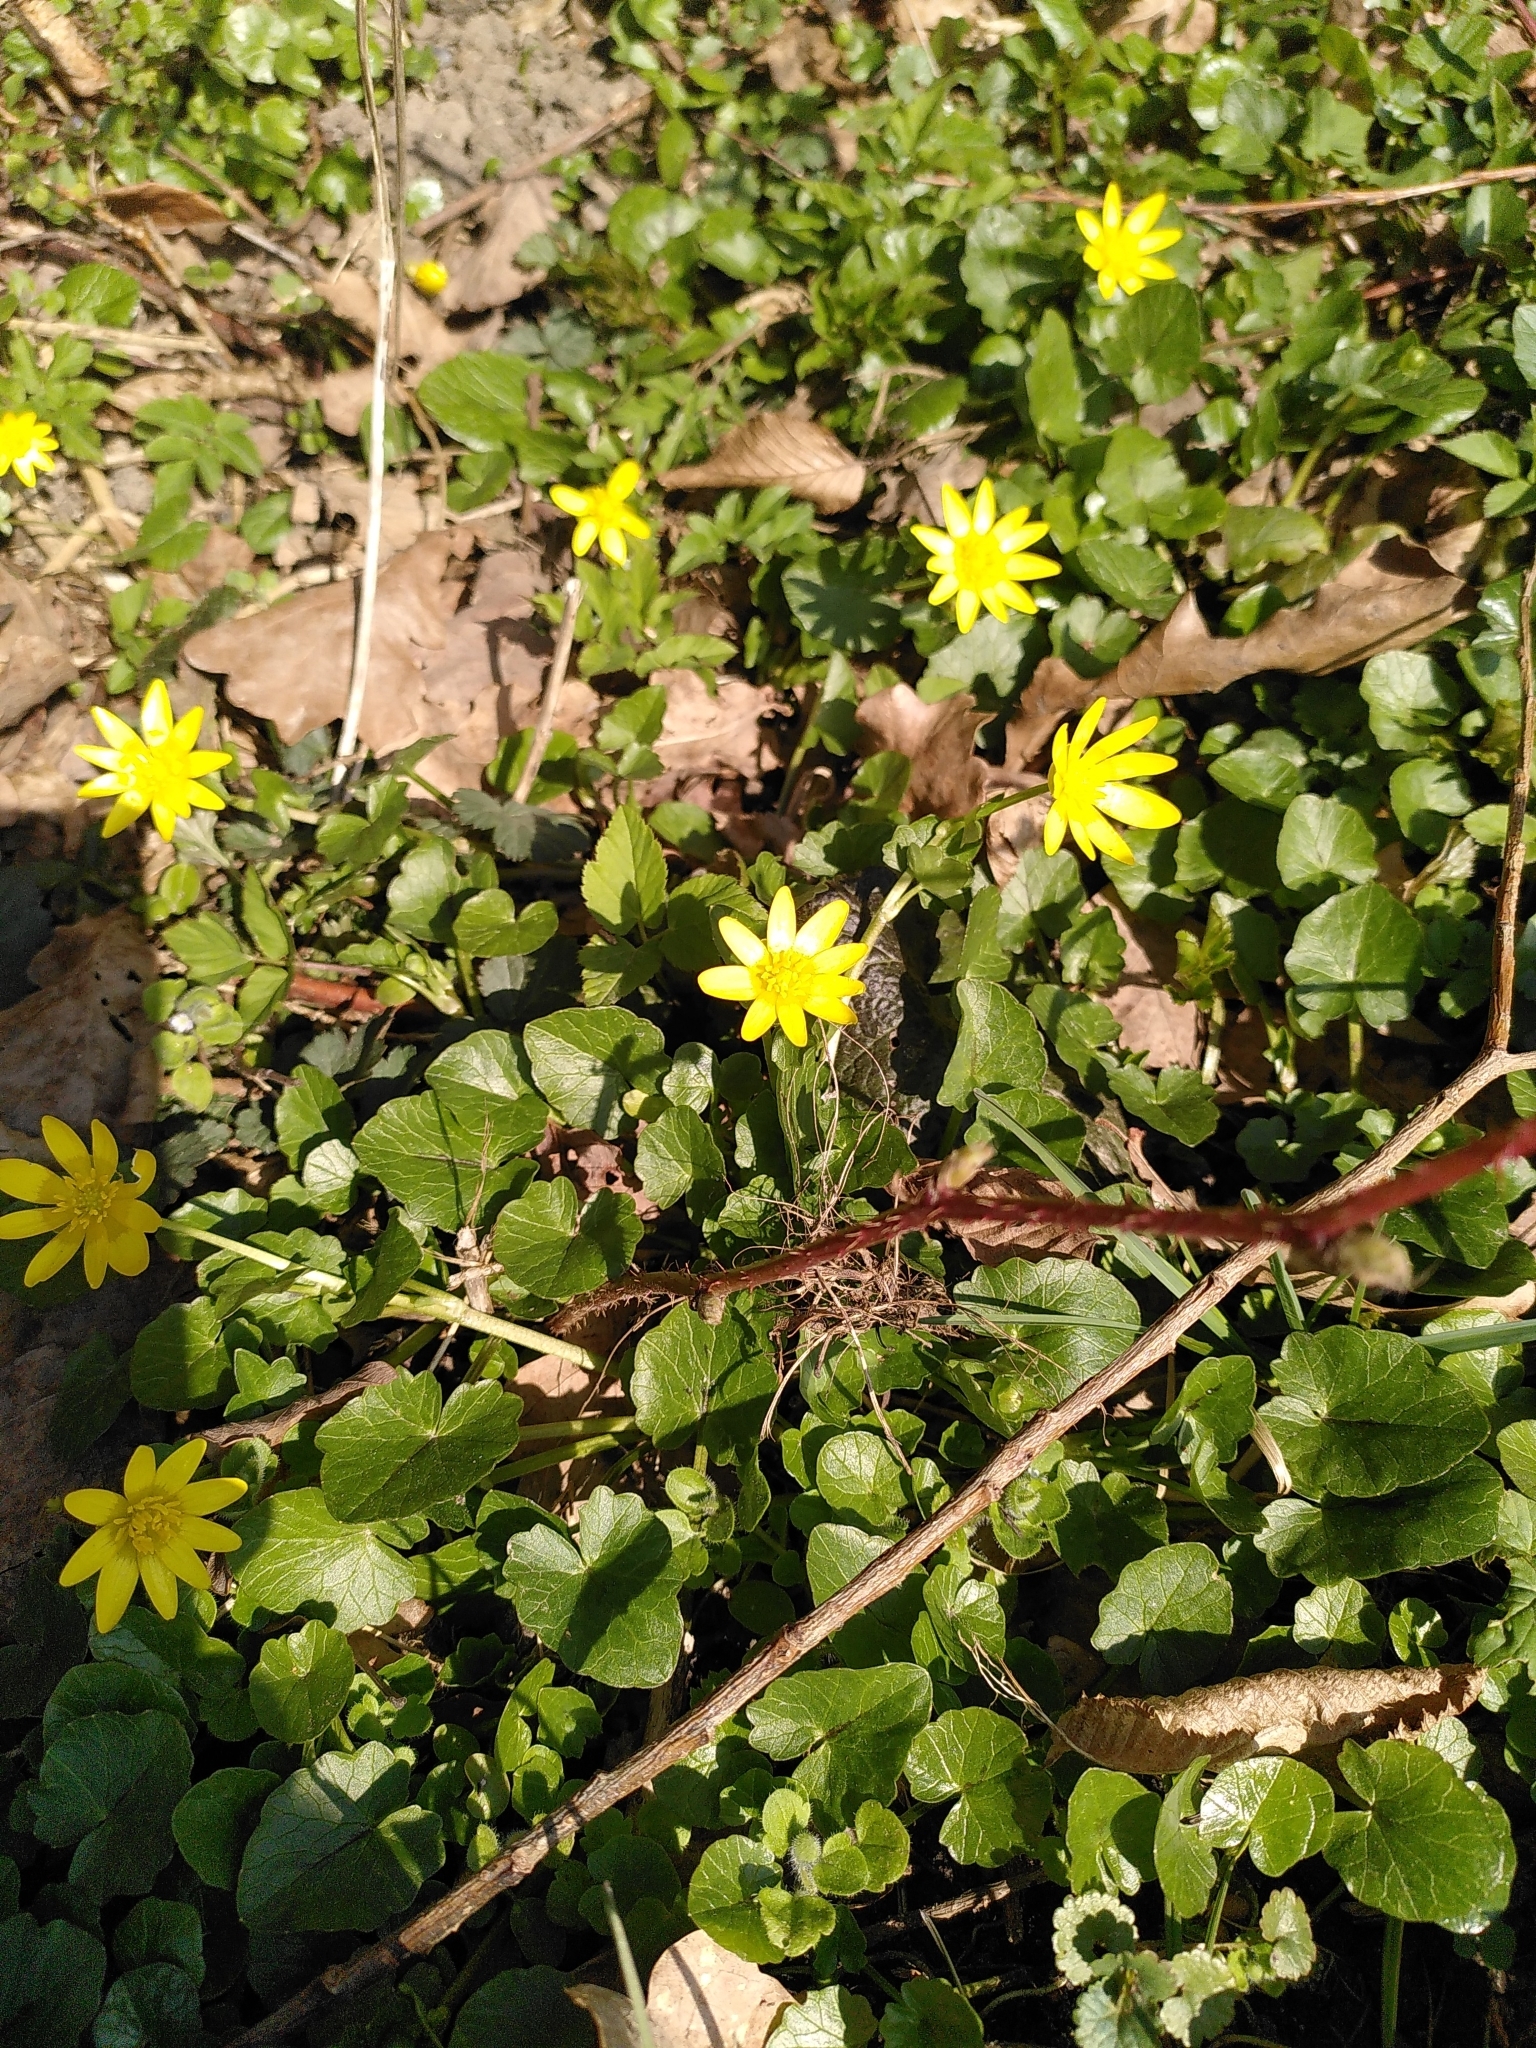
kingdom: Plantae
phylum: Tracheophyta
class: Magnoliopsida
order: Ranunculales
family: Ranunculaceae
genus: Ficaria
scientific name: Ficaria verna
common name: Lesser celandine
